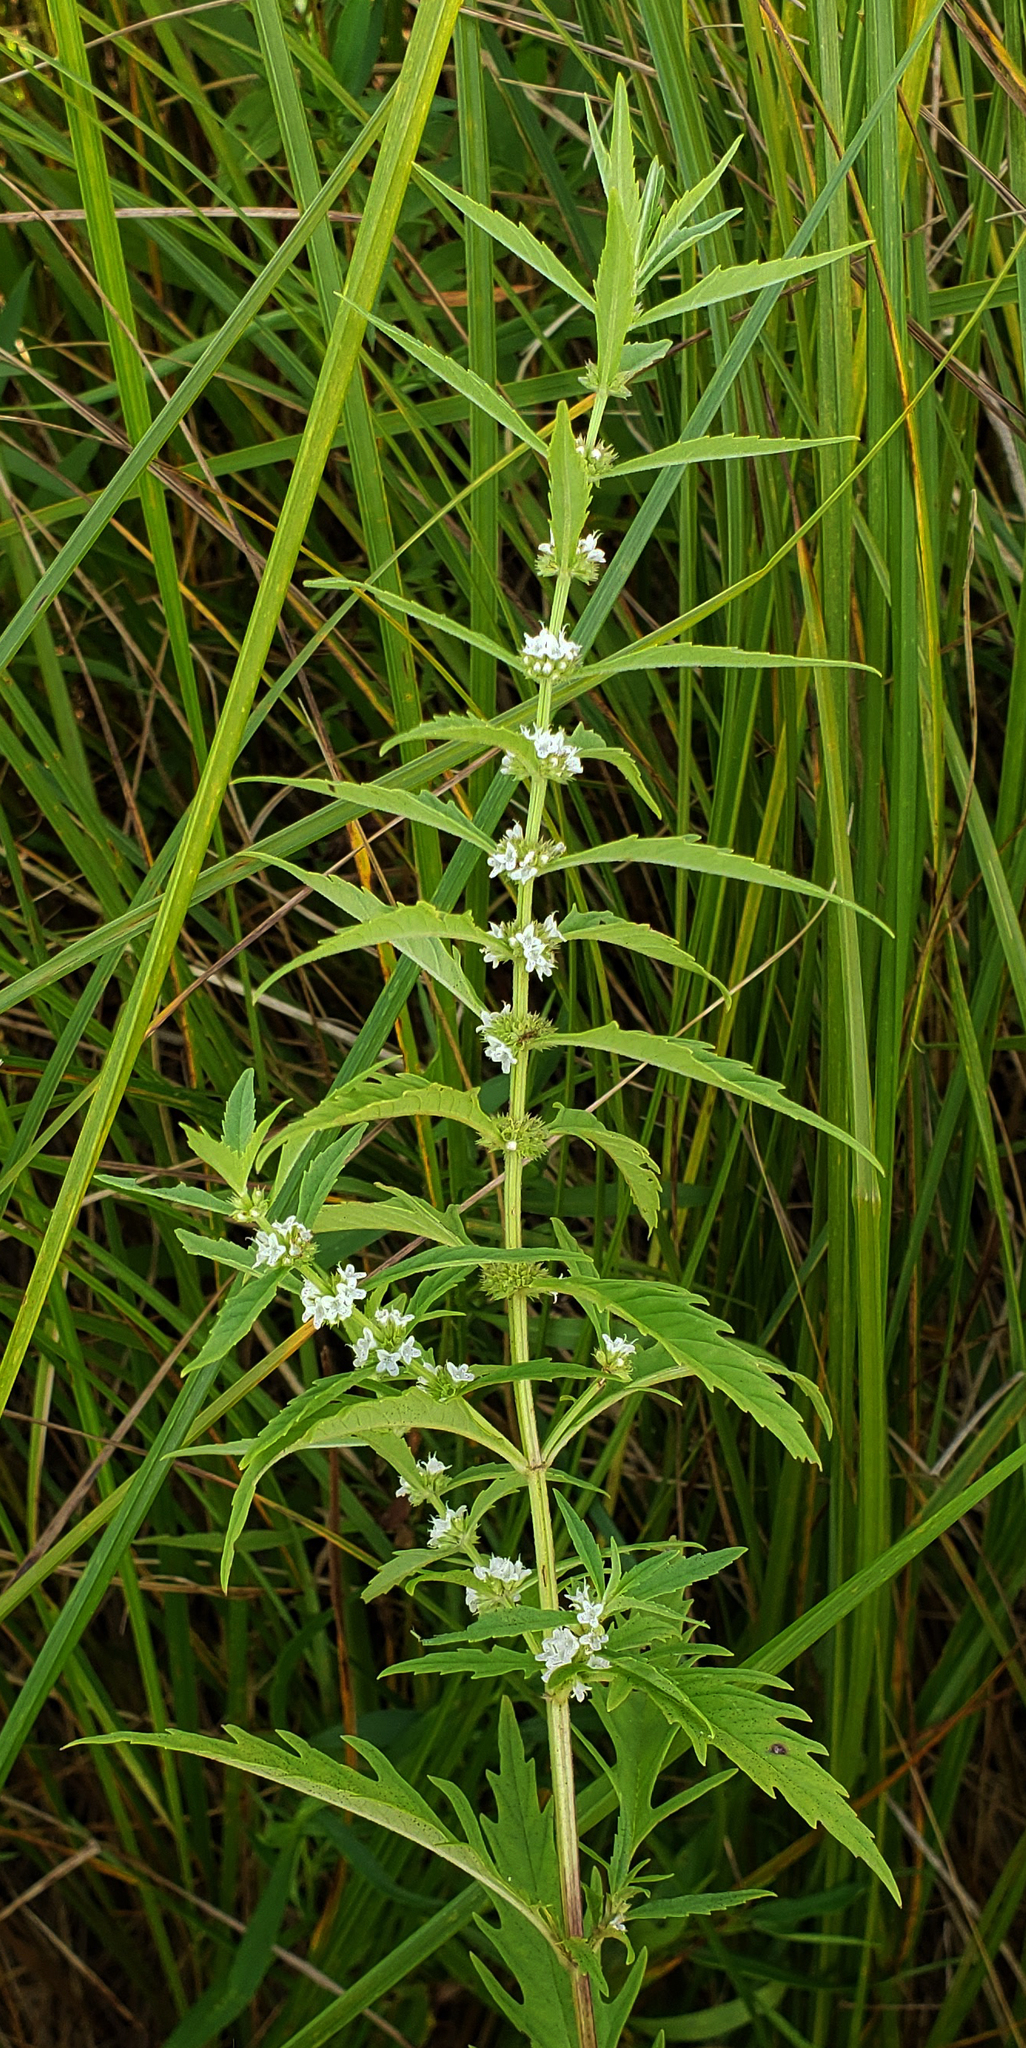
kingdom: Plantae
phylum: Tracheophyta
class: Magnoliopsida
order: Lamiales
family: Lamiaceae
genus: Lycopus
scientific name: Lycopus americanus
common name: American bugleweed
